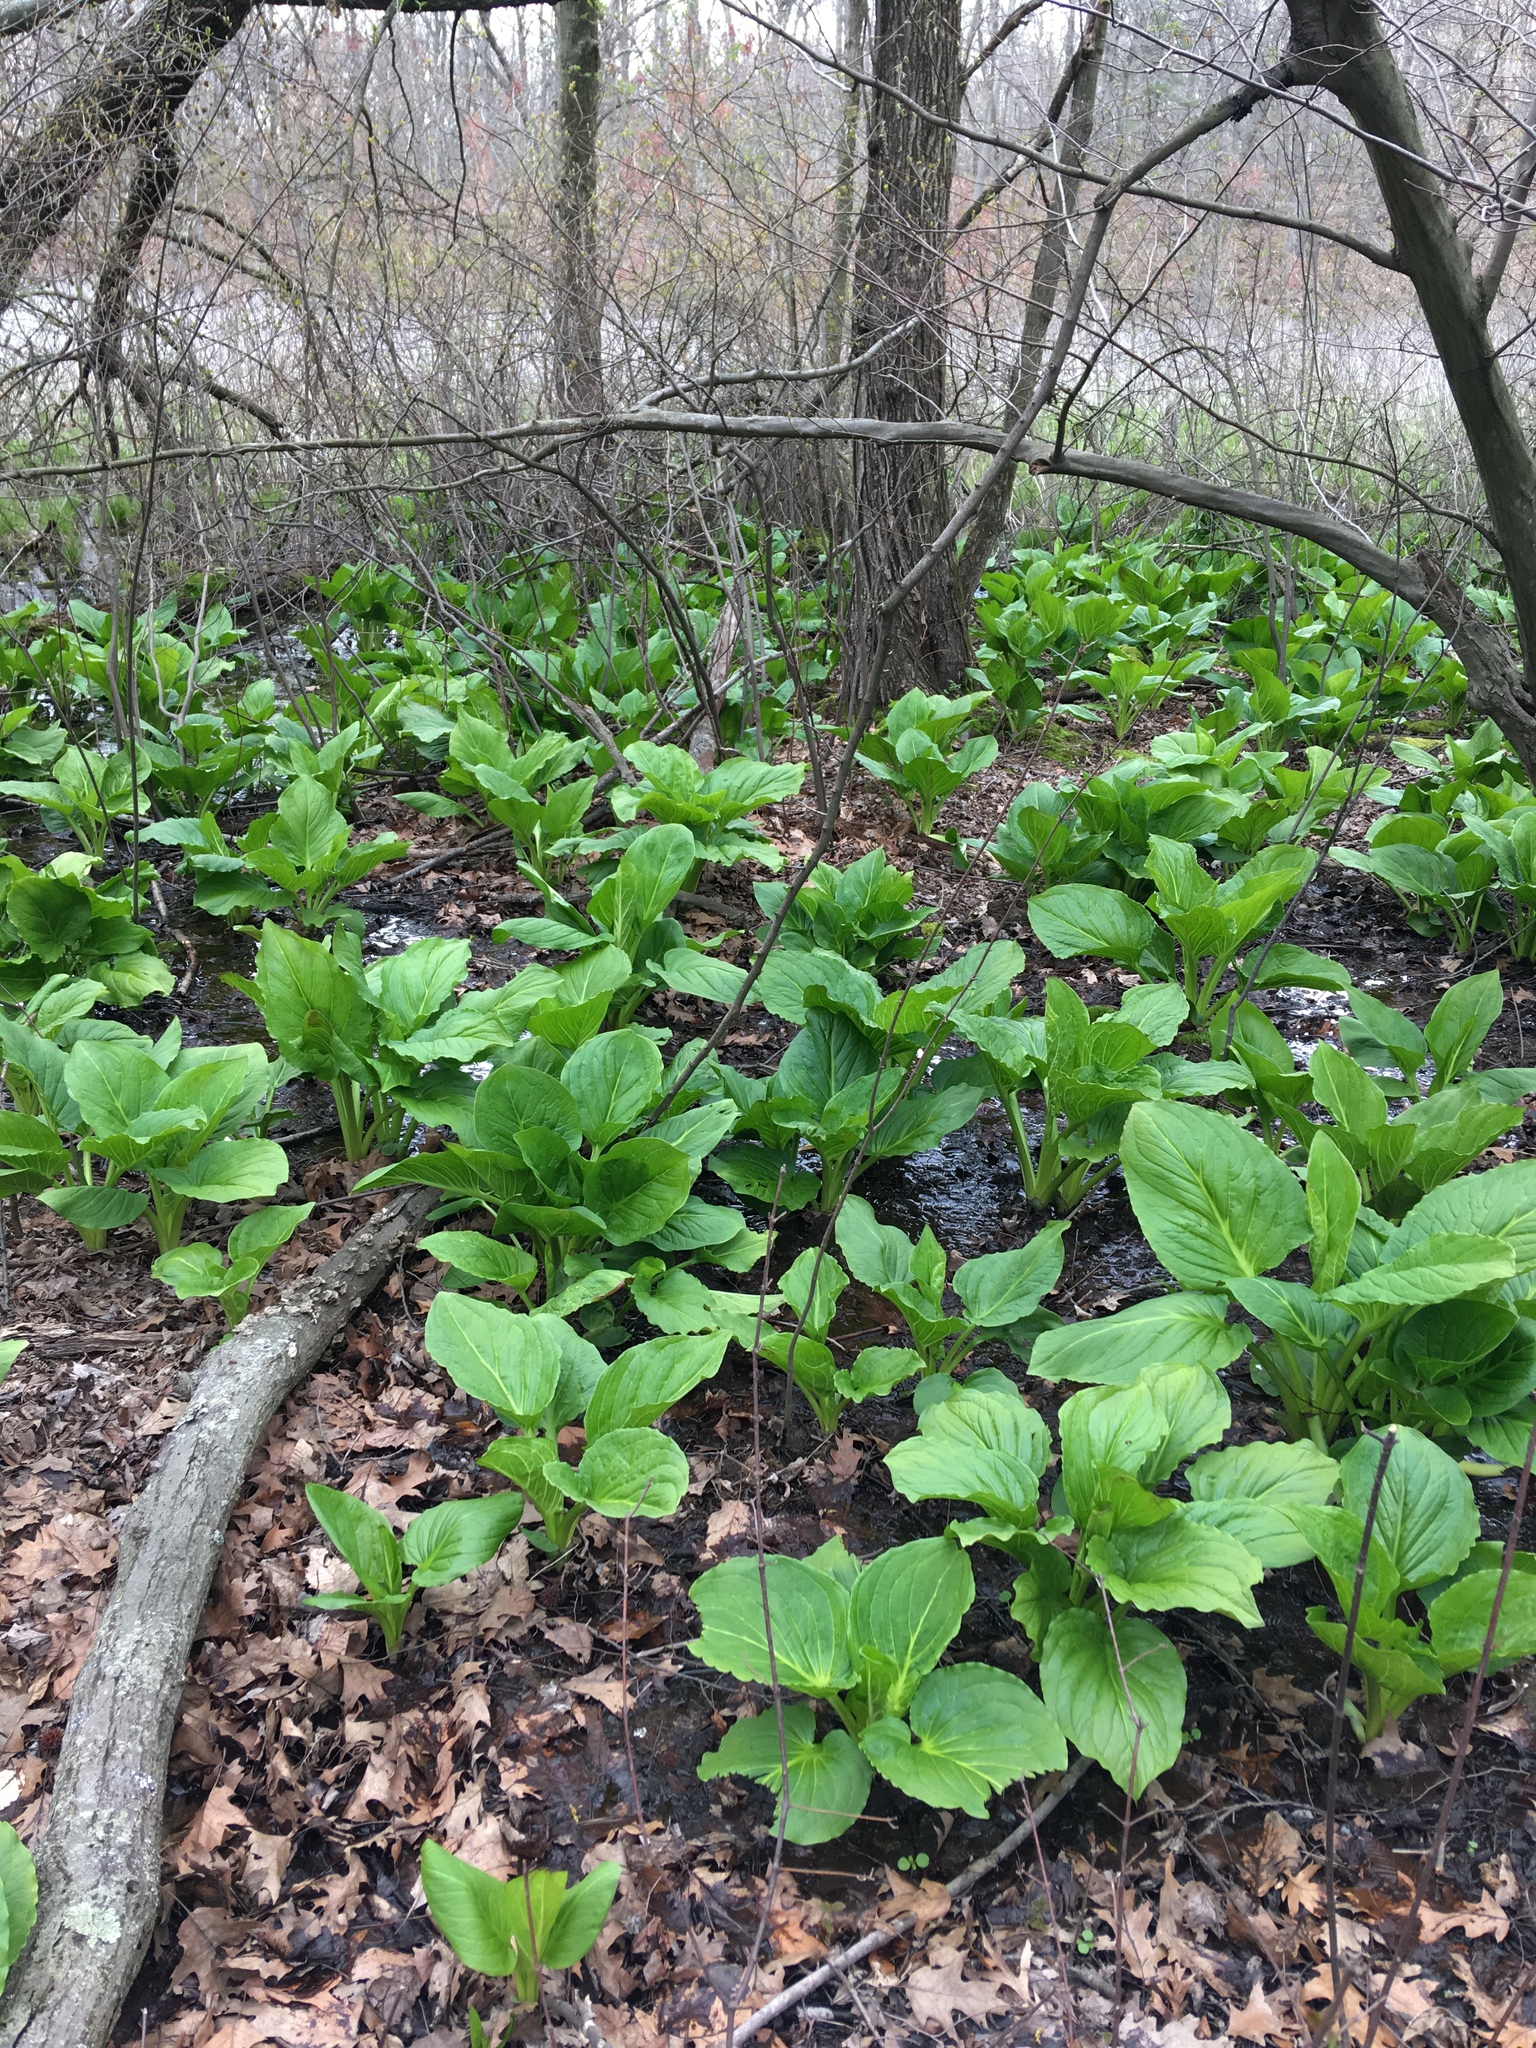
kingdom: Plantae
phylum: Tracheophyta
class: Liliopsida
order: Alismatales
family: Araceae
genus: Symplocarpus
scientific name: Symplocarpus foetidus
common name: Eastern skunk cabbage
